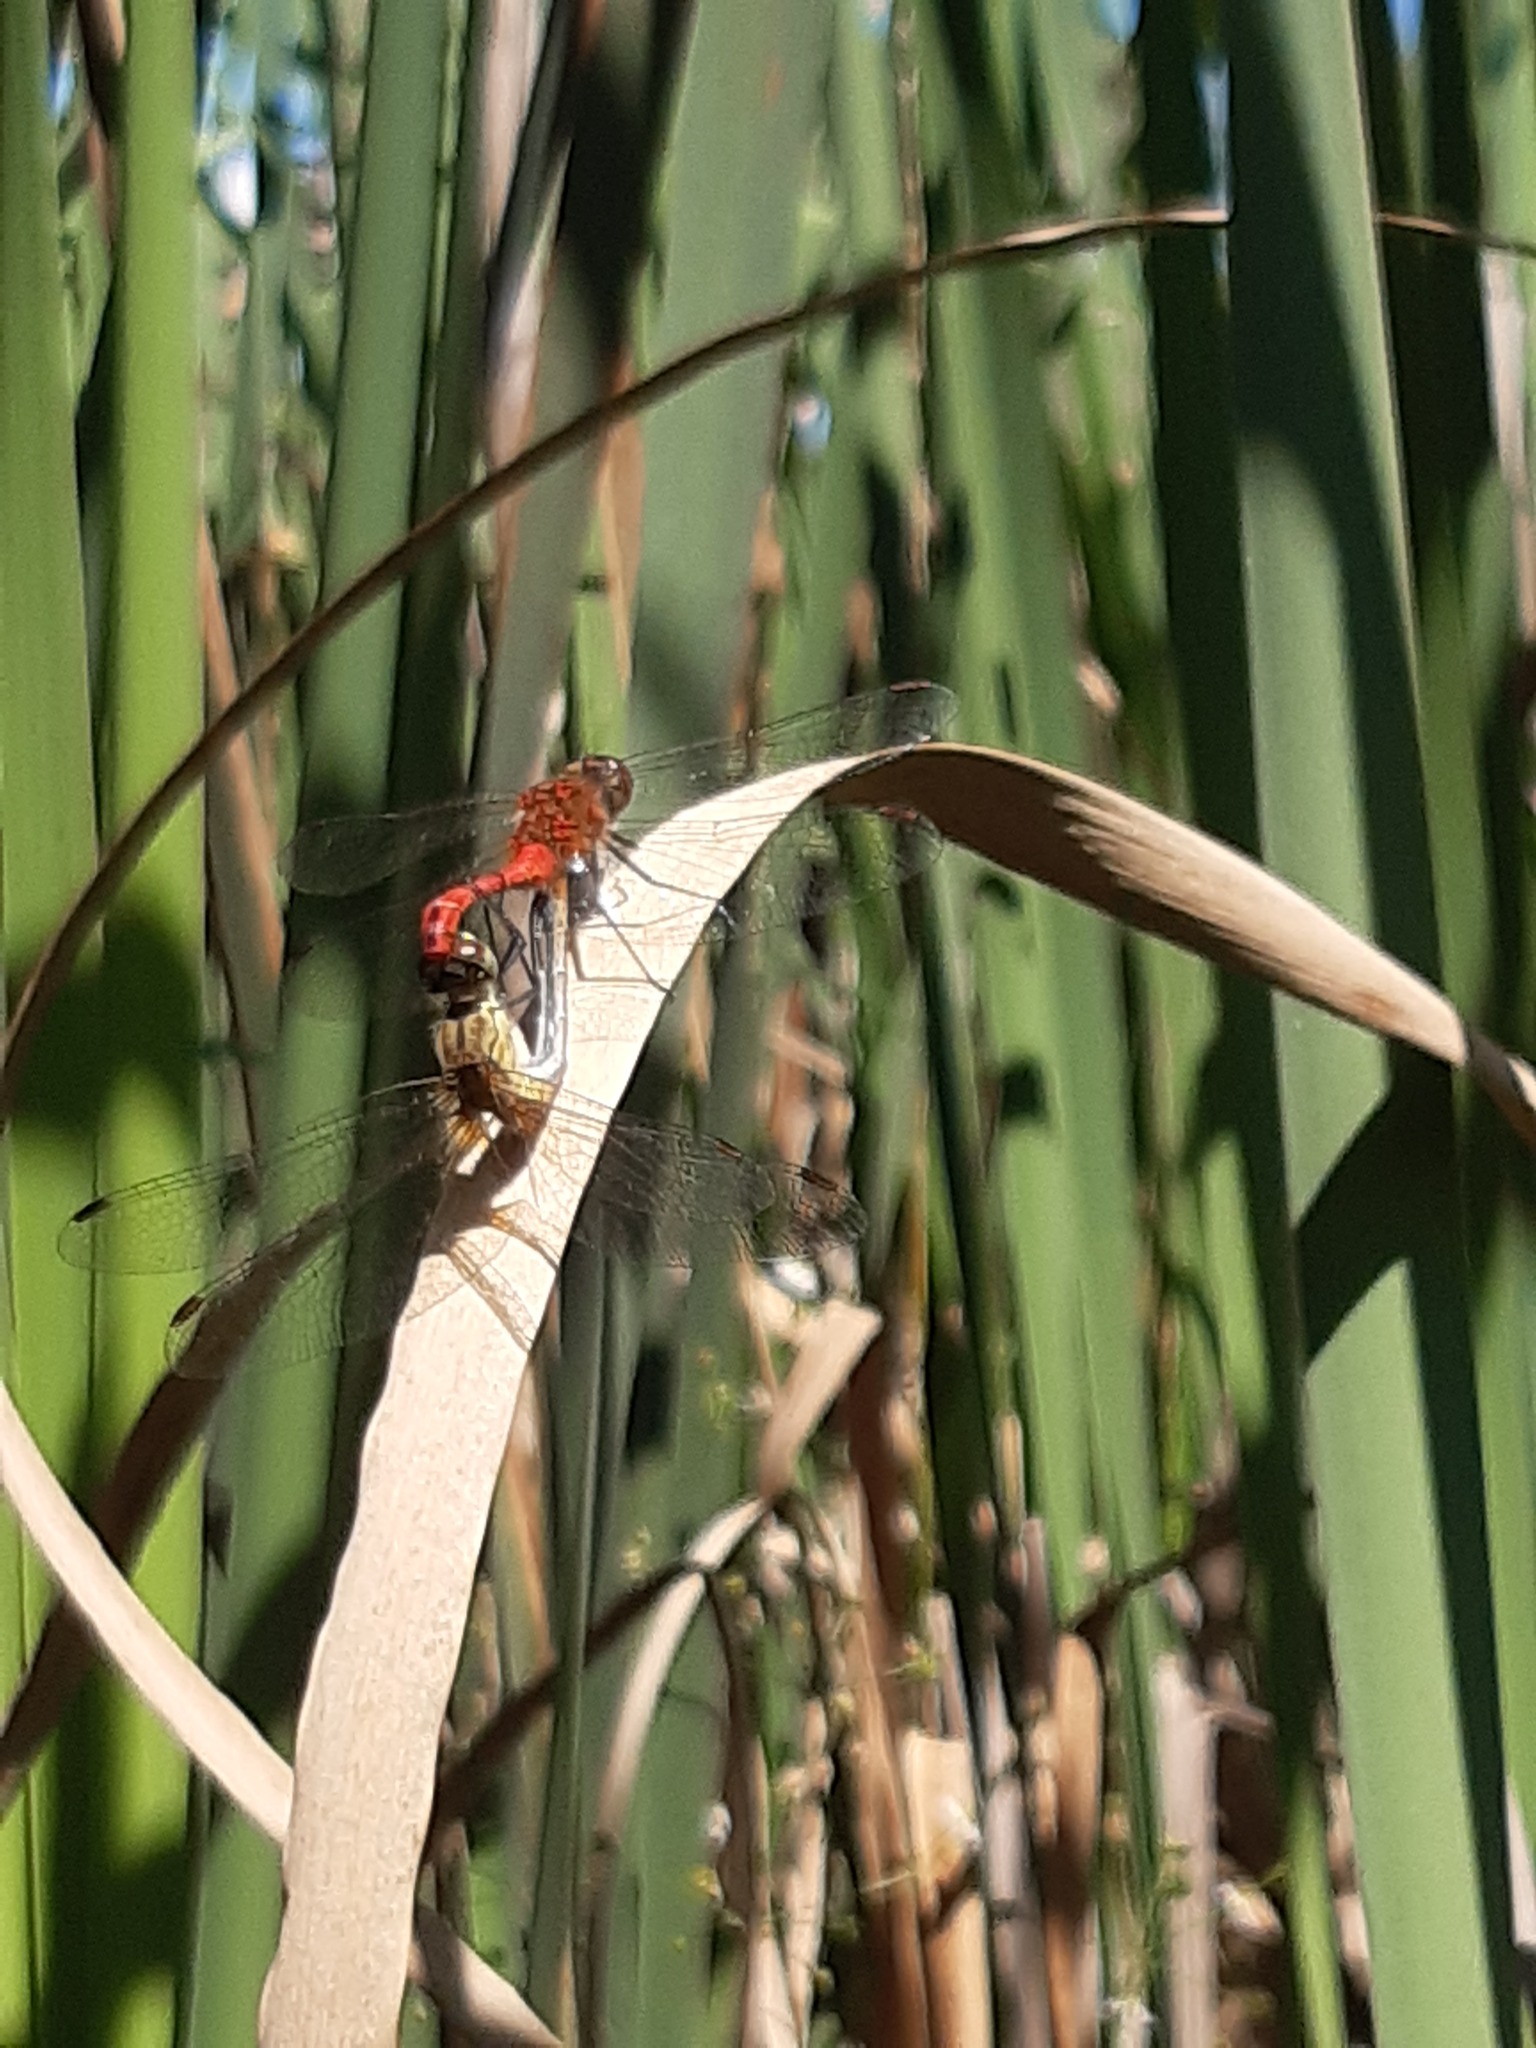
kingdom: Animalia
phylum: Arthropoda
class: Insecta
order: Odonata
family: Libellulidae
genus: Sympetrum
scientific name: Sympetrum sanguineum
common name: Ruddy darter
